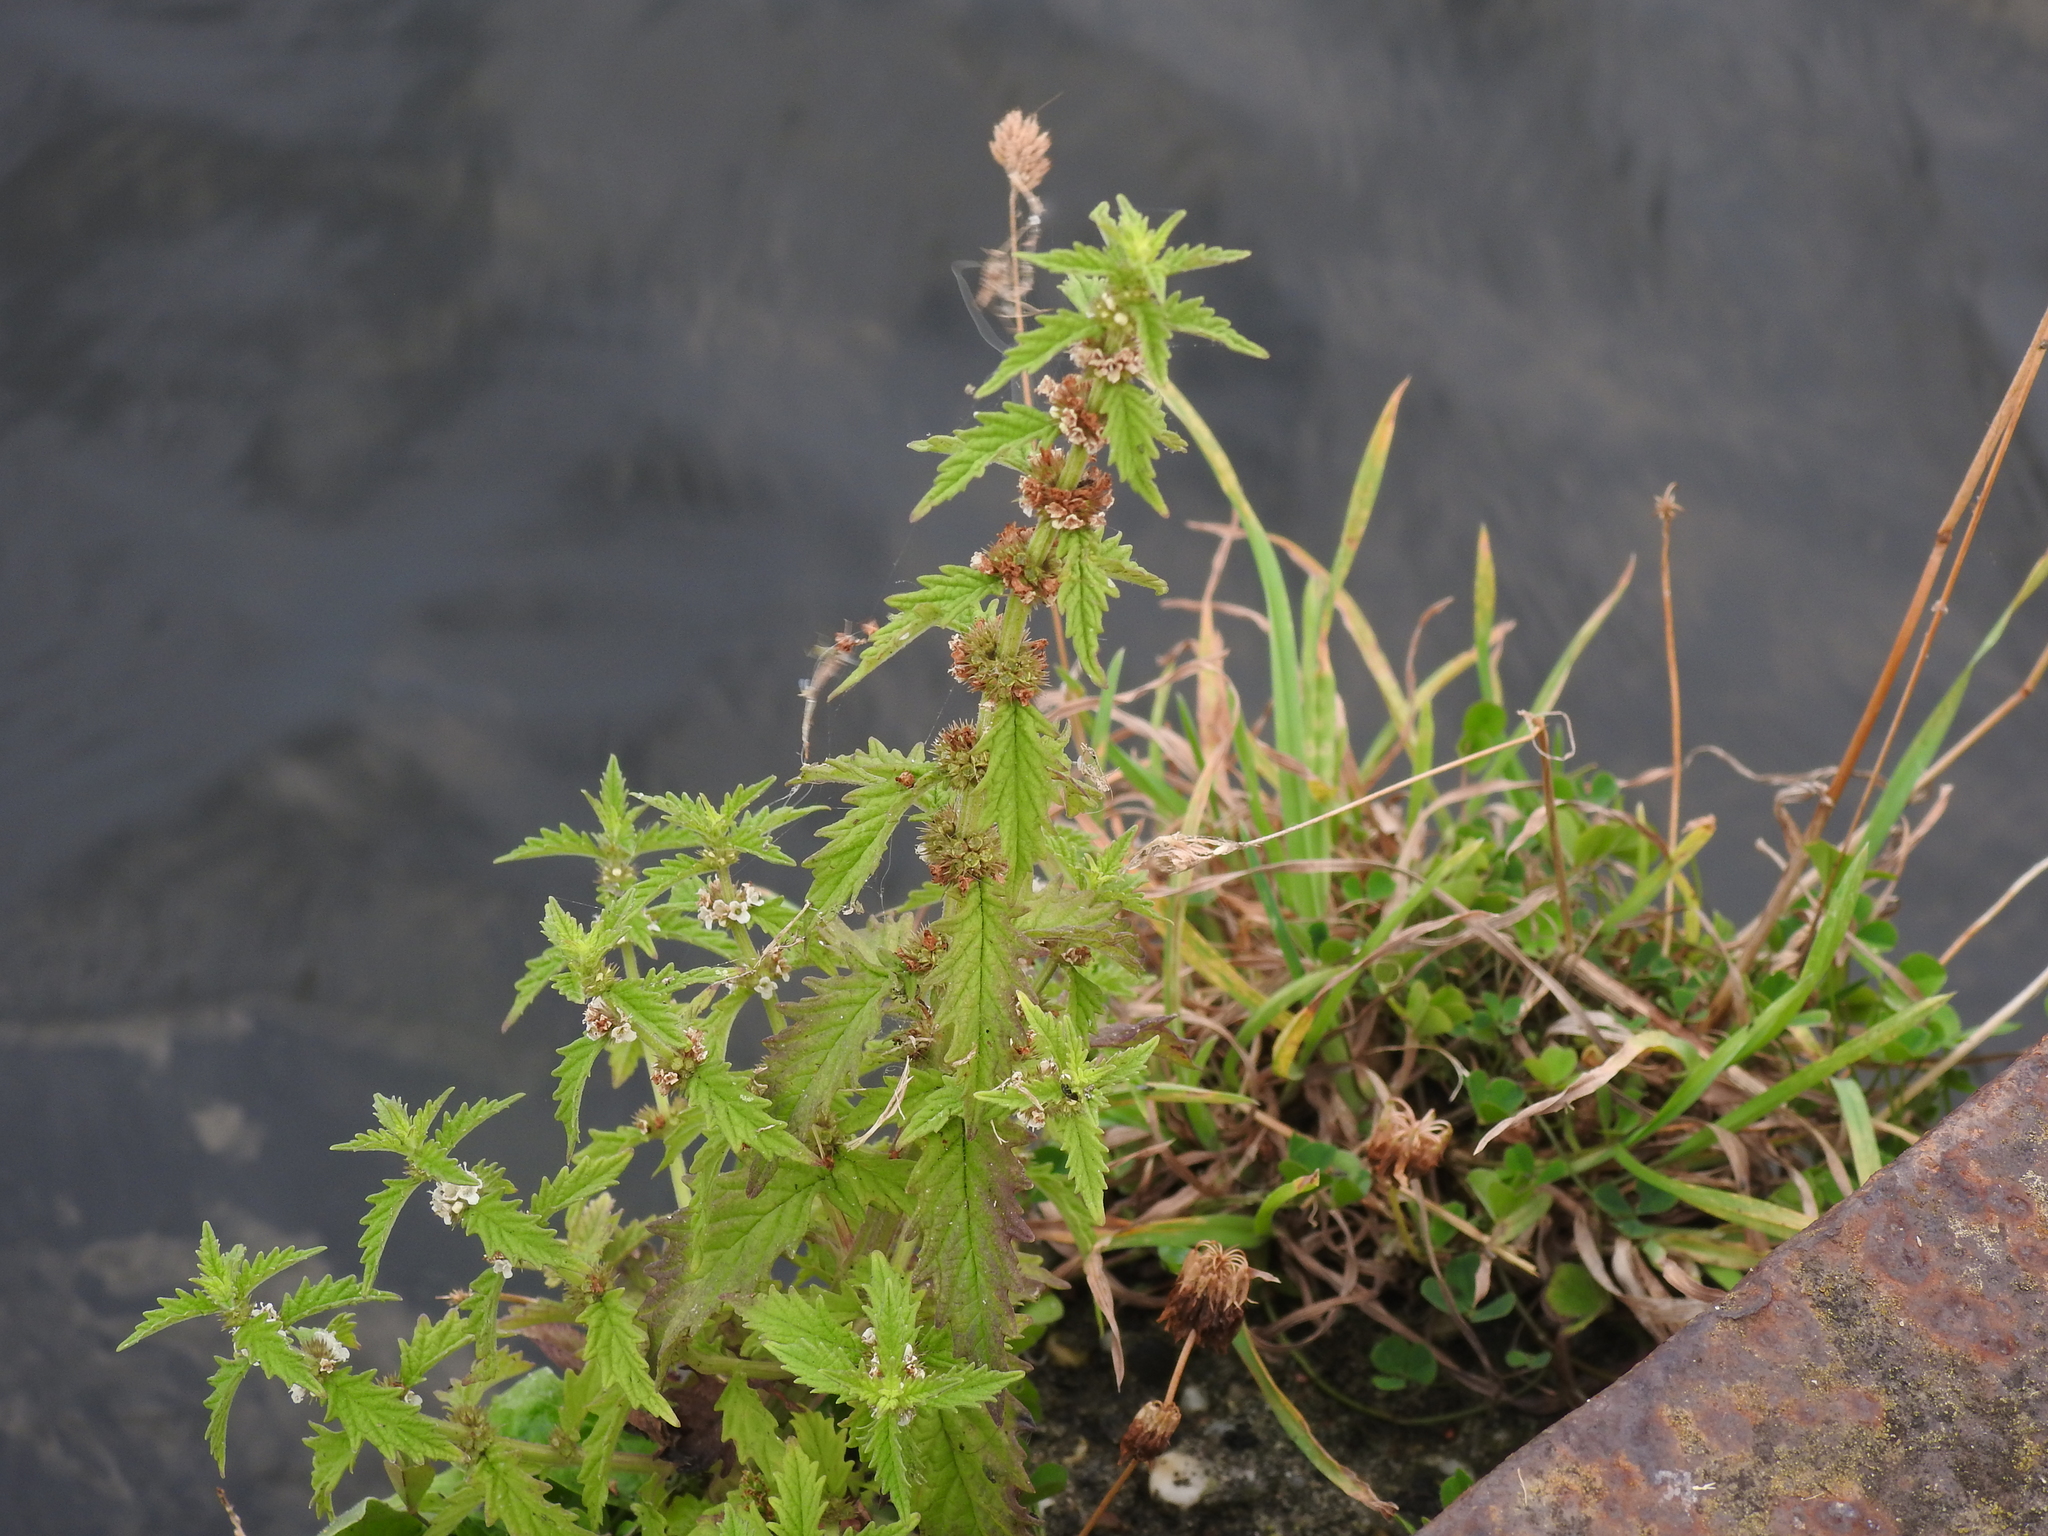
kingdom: Plantae
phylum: Tracheophyta
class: Magnoliopsida
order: Lamiales
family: Lamiaceae
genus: Lycopus
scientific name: Lycopus europaeus
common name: European bugleweed
